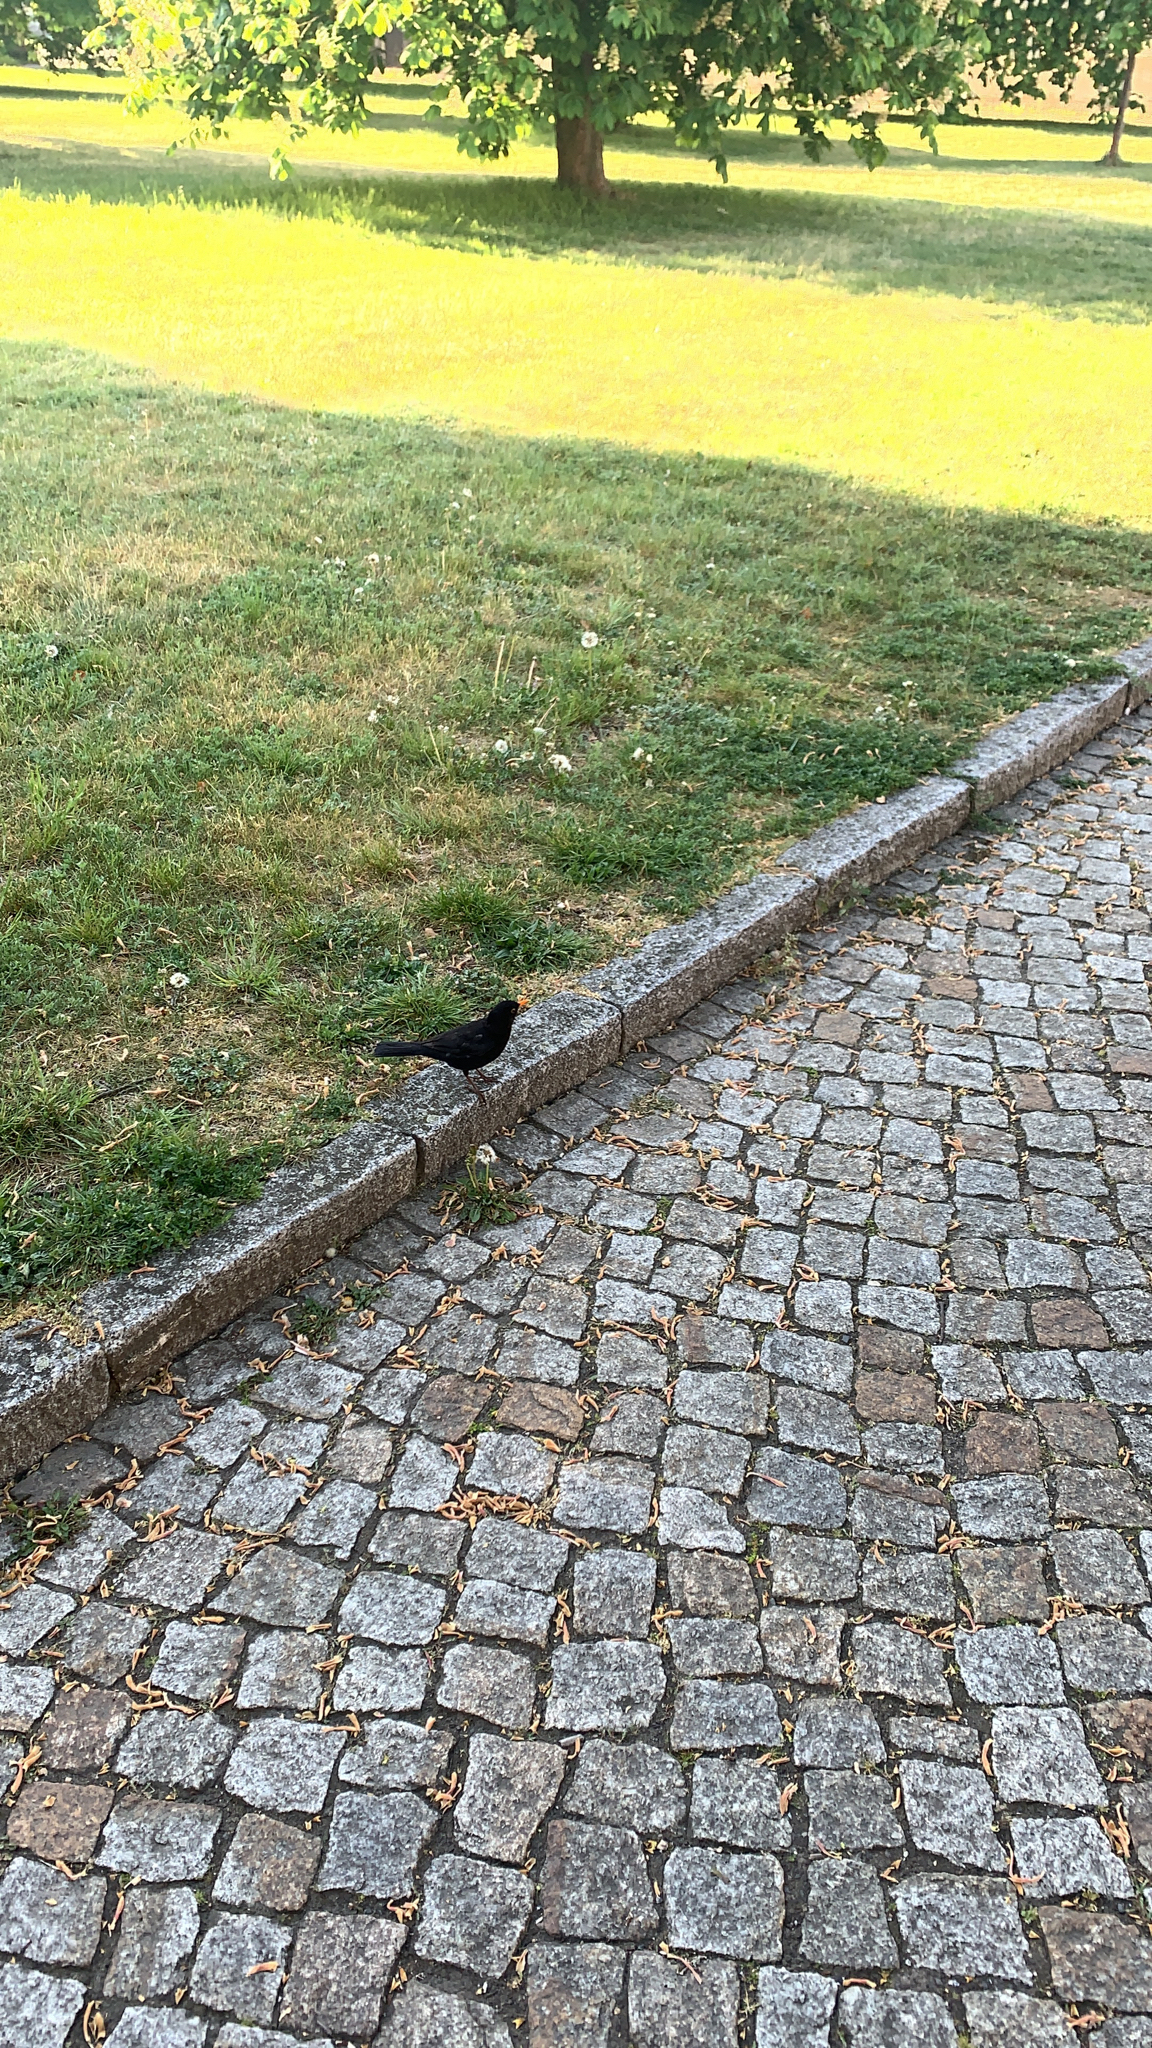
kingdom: Animalia
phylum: Chordata
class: Aves
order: Passeriformes
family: Turdidae
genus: Turdus
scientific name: Turdus merula
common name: Common blackbird
